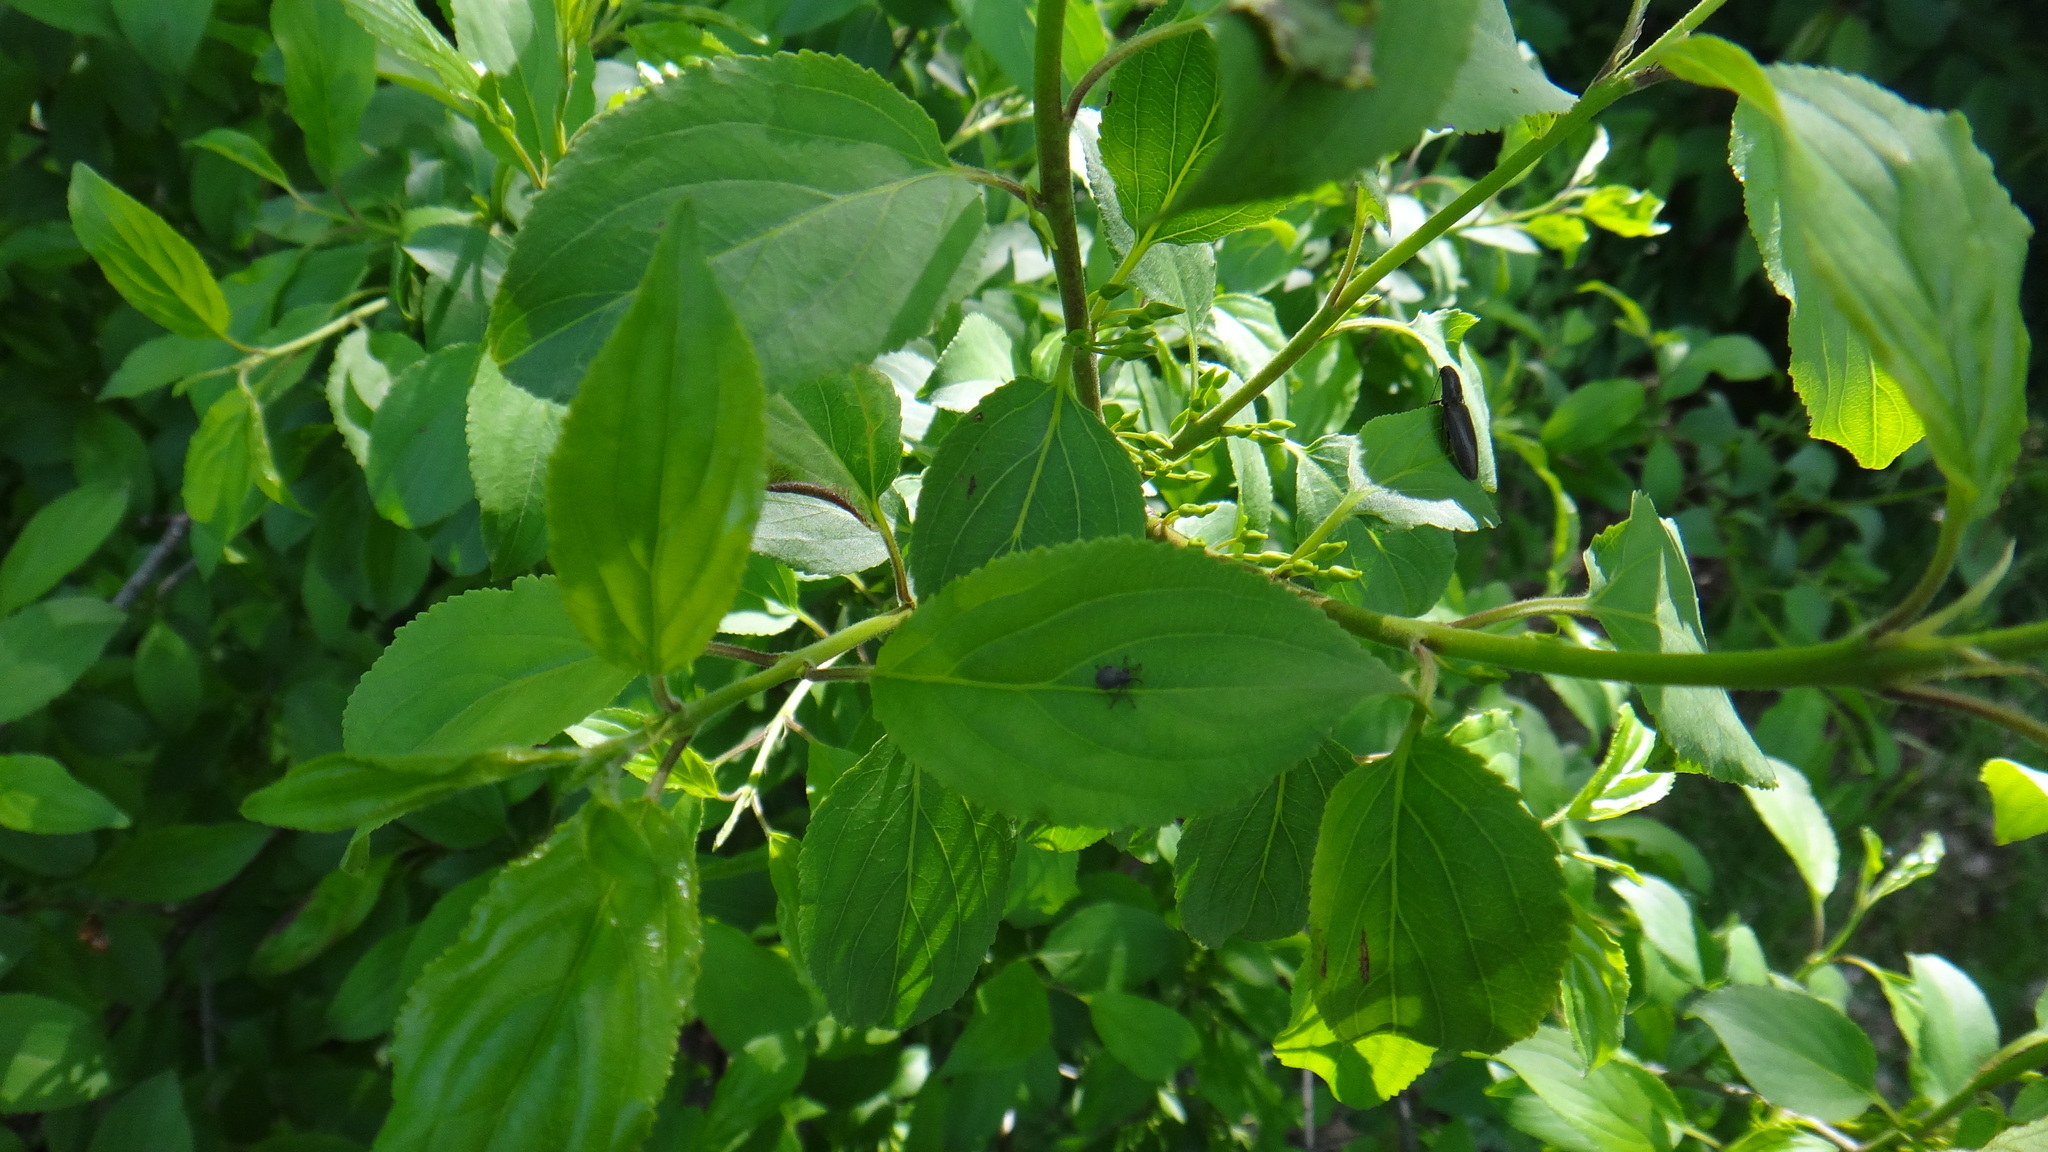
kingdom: Plantae
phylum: Tracheophyta
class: Magnoliopsida
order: Rosales
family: Rhamnaceae
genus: Rhamnus
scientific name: Rhamnus cathartica
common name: Common buckthorn
